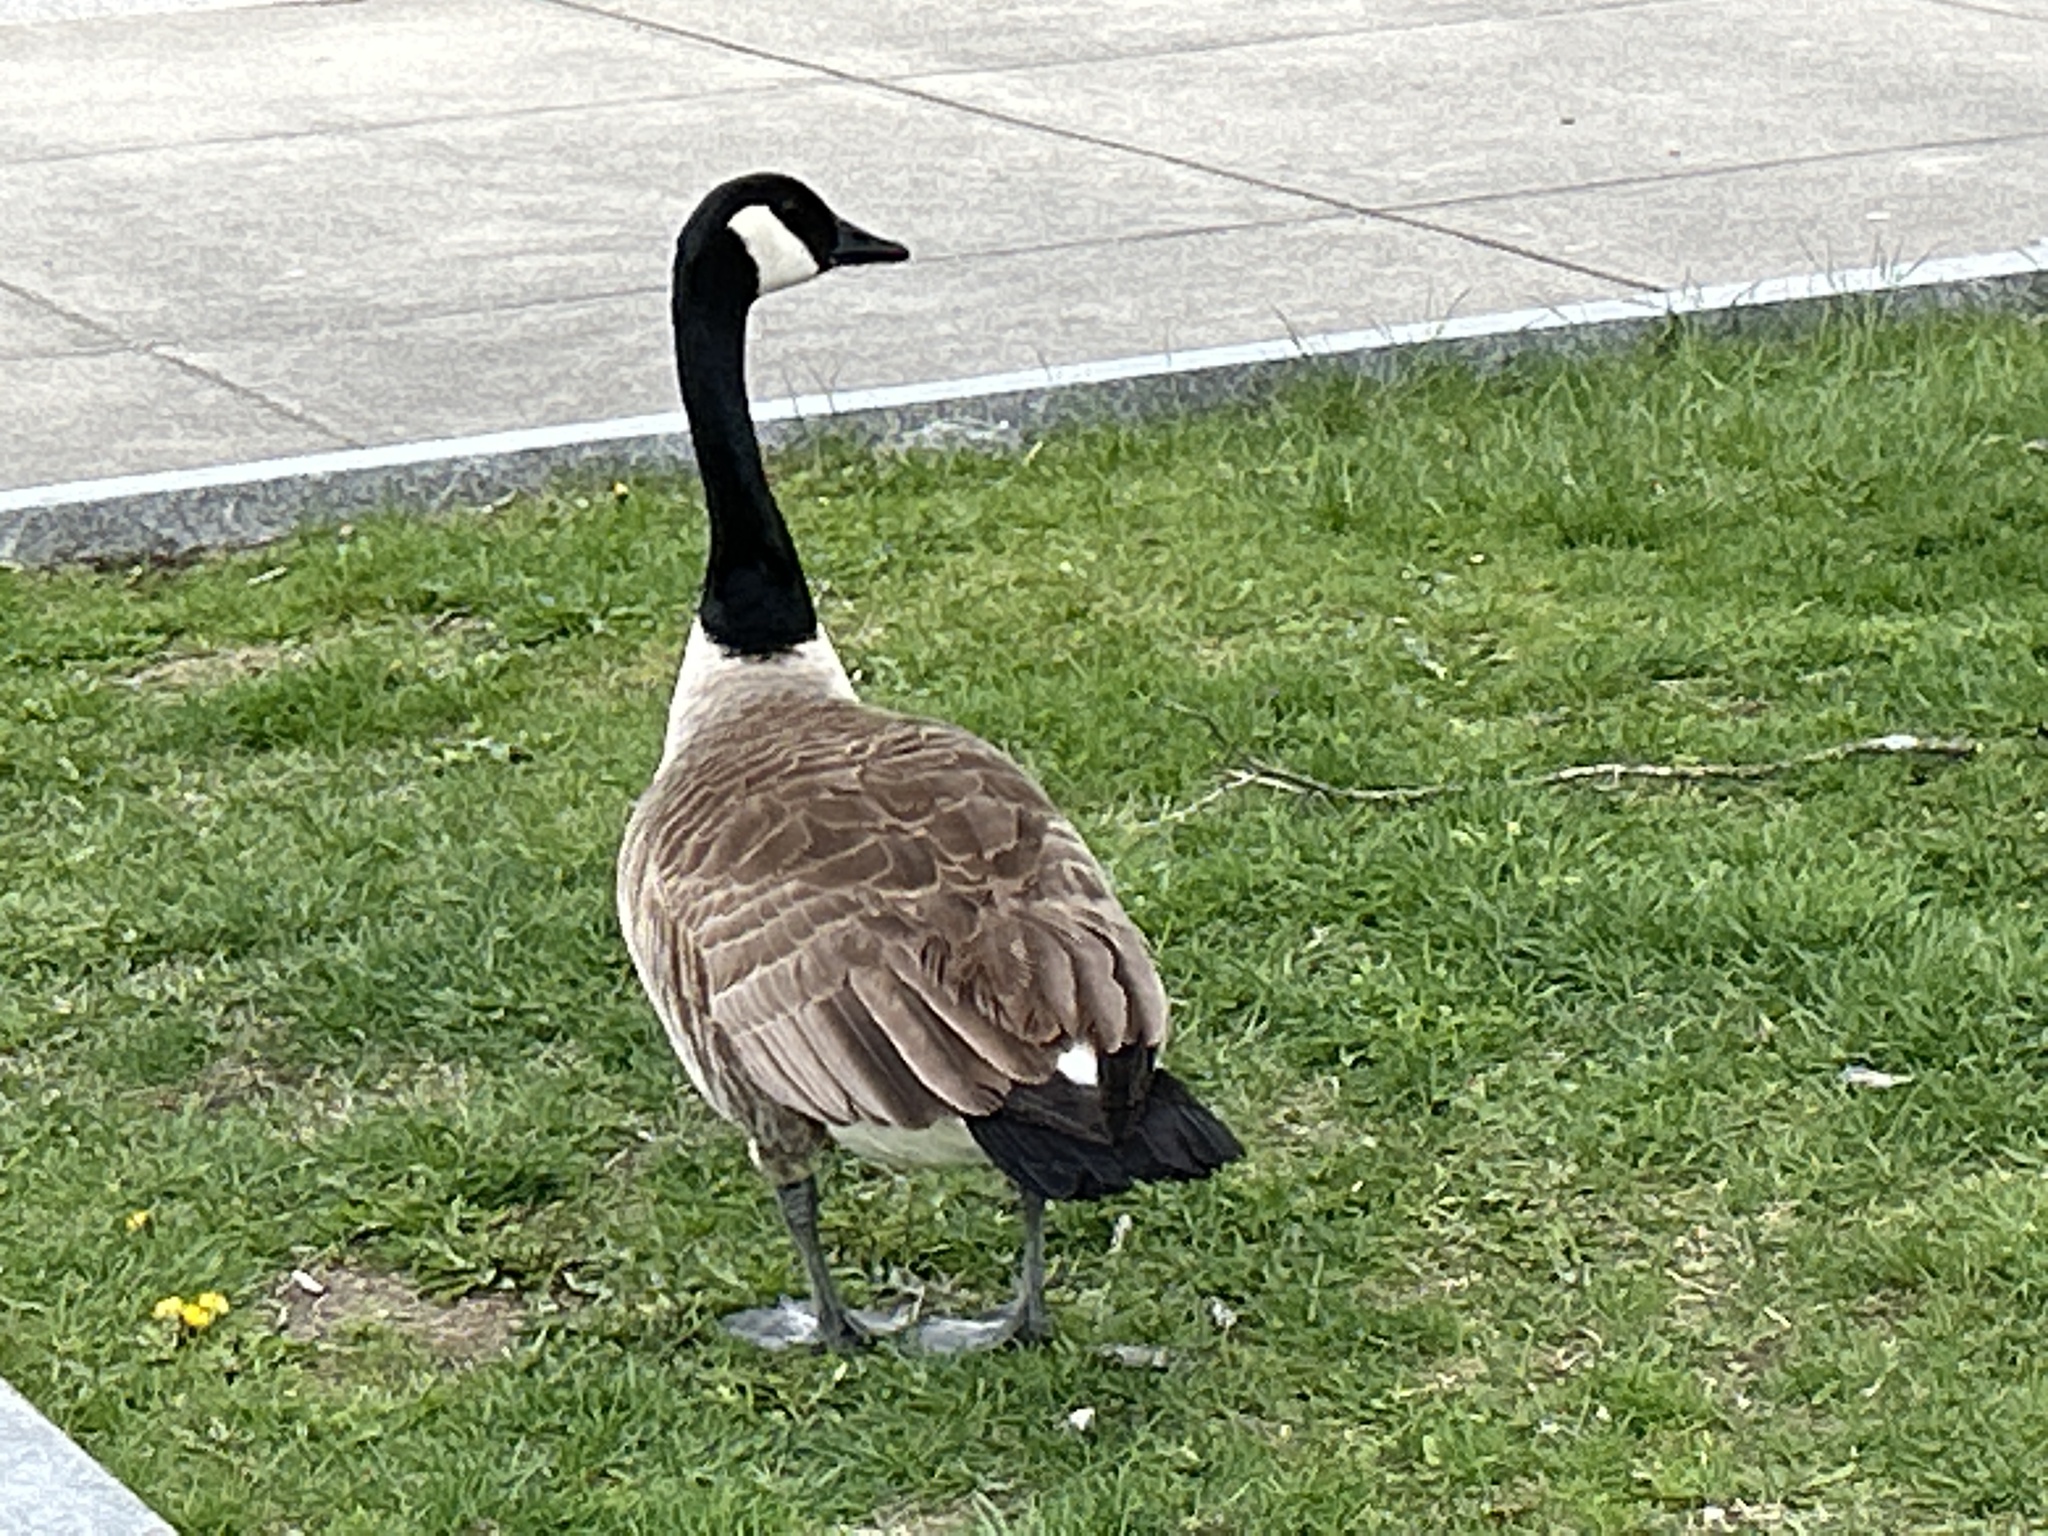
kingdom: Animalia
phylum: Chordata
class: Aves
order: Anseriformes
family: Anatidae
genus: Branta
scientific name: Branta canadensis
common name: Canada goose
